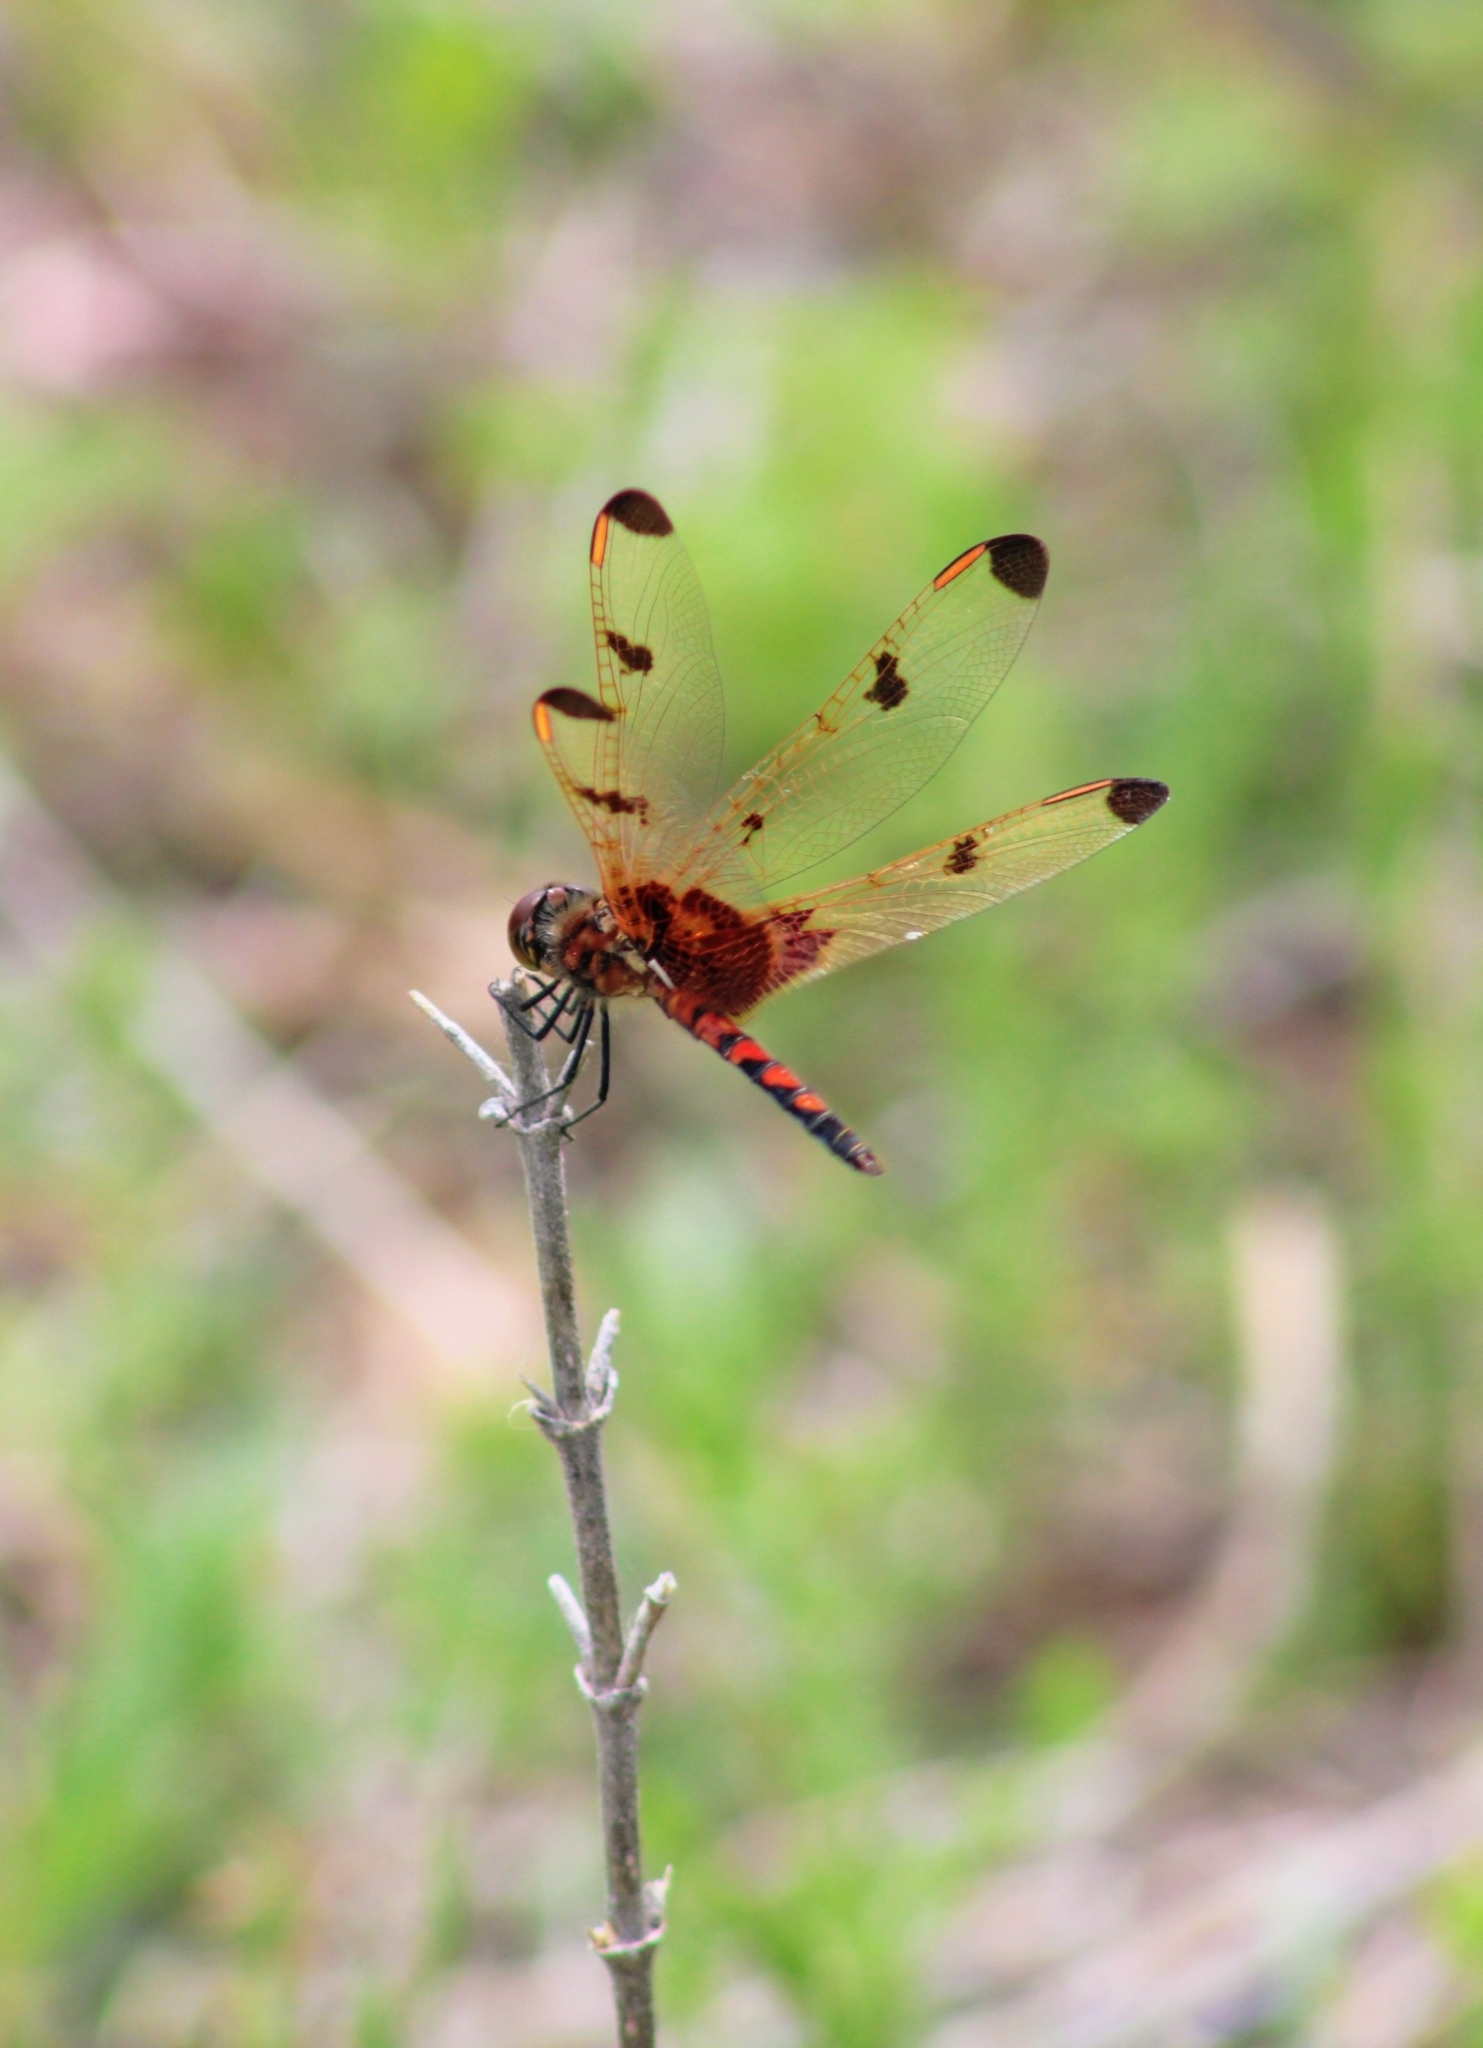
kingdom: Animalia
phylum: Arthropoda
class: Insecta
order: Odonata
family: Libellulidae
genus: Celithemis
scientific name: Celithemis elisa
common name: Calico pennant
